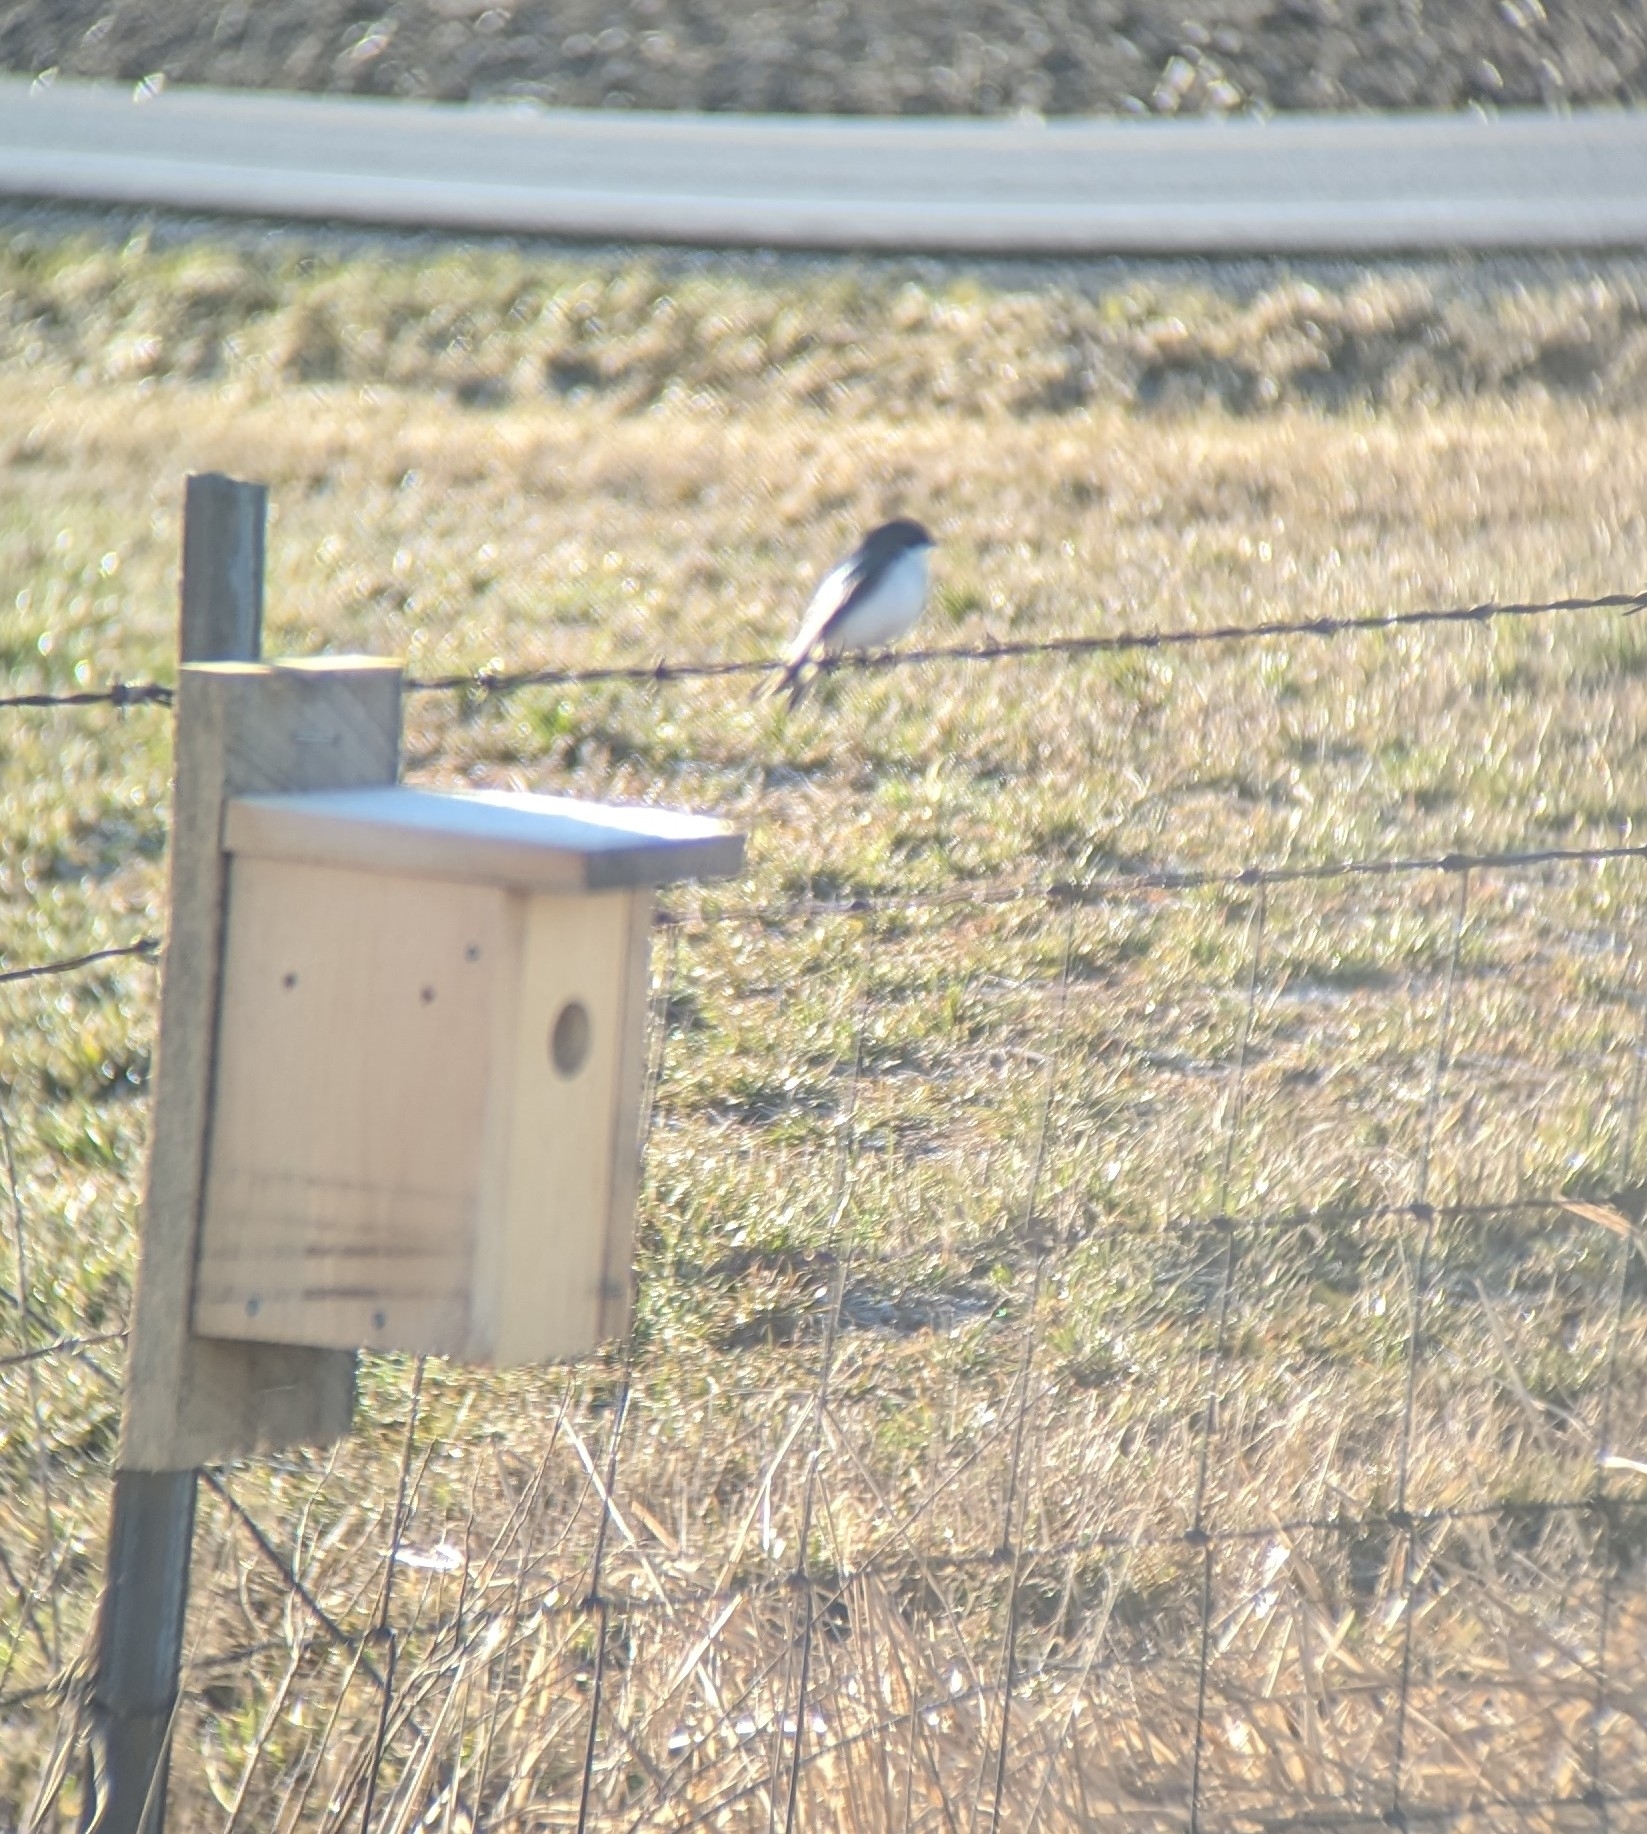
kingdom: Animalia
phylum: Chordata
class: Aves
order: Passeriformes
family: Hirundinidae
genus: Tachycineta
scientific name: Tachycineta bicolor
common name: Tree swallow
